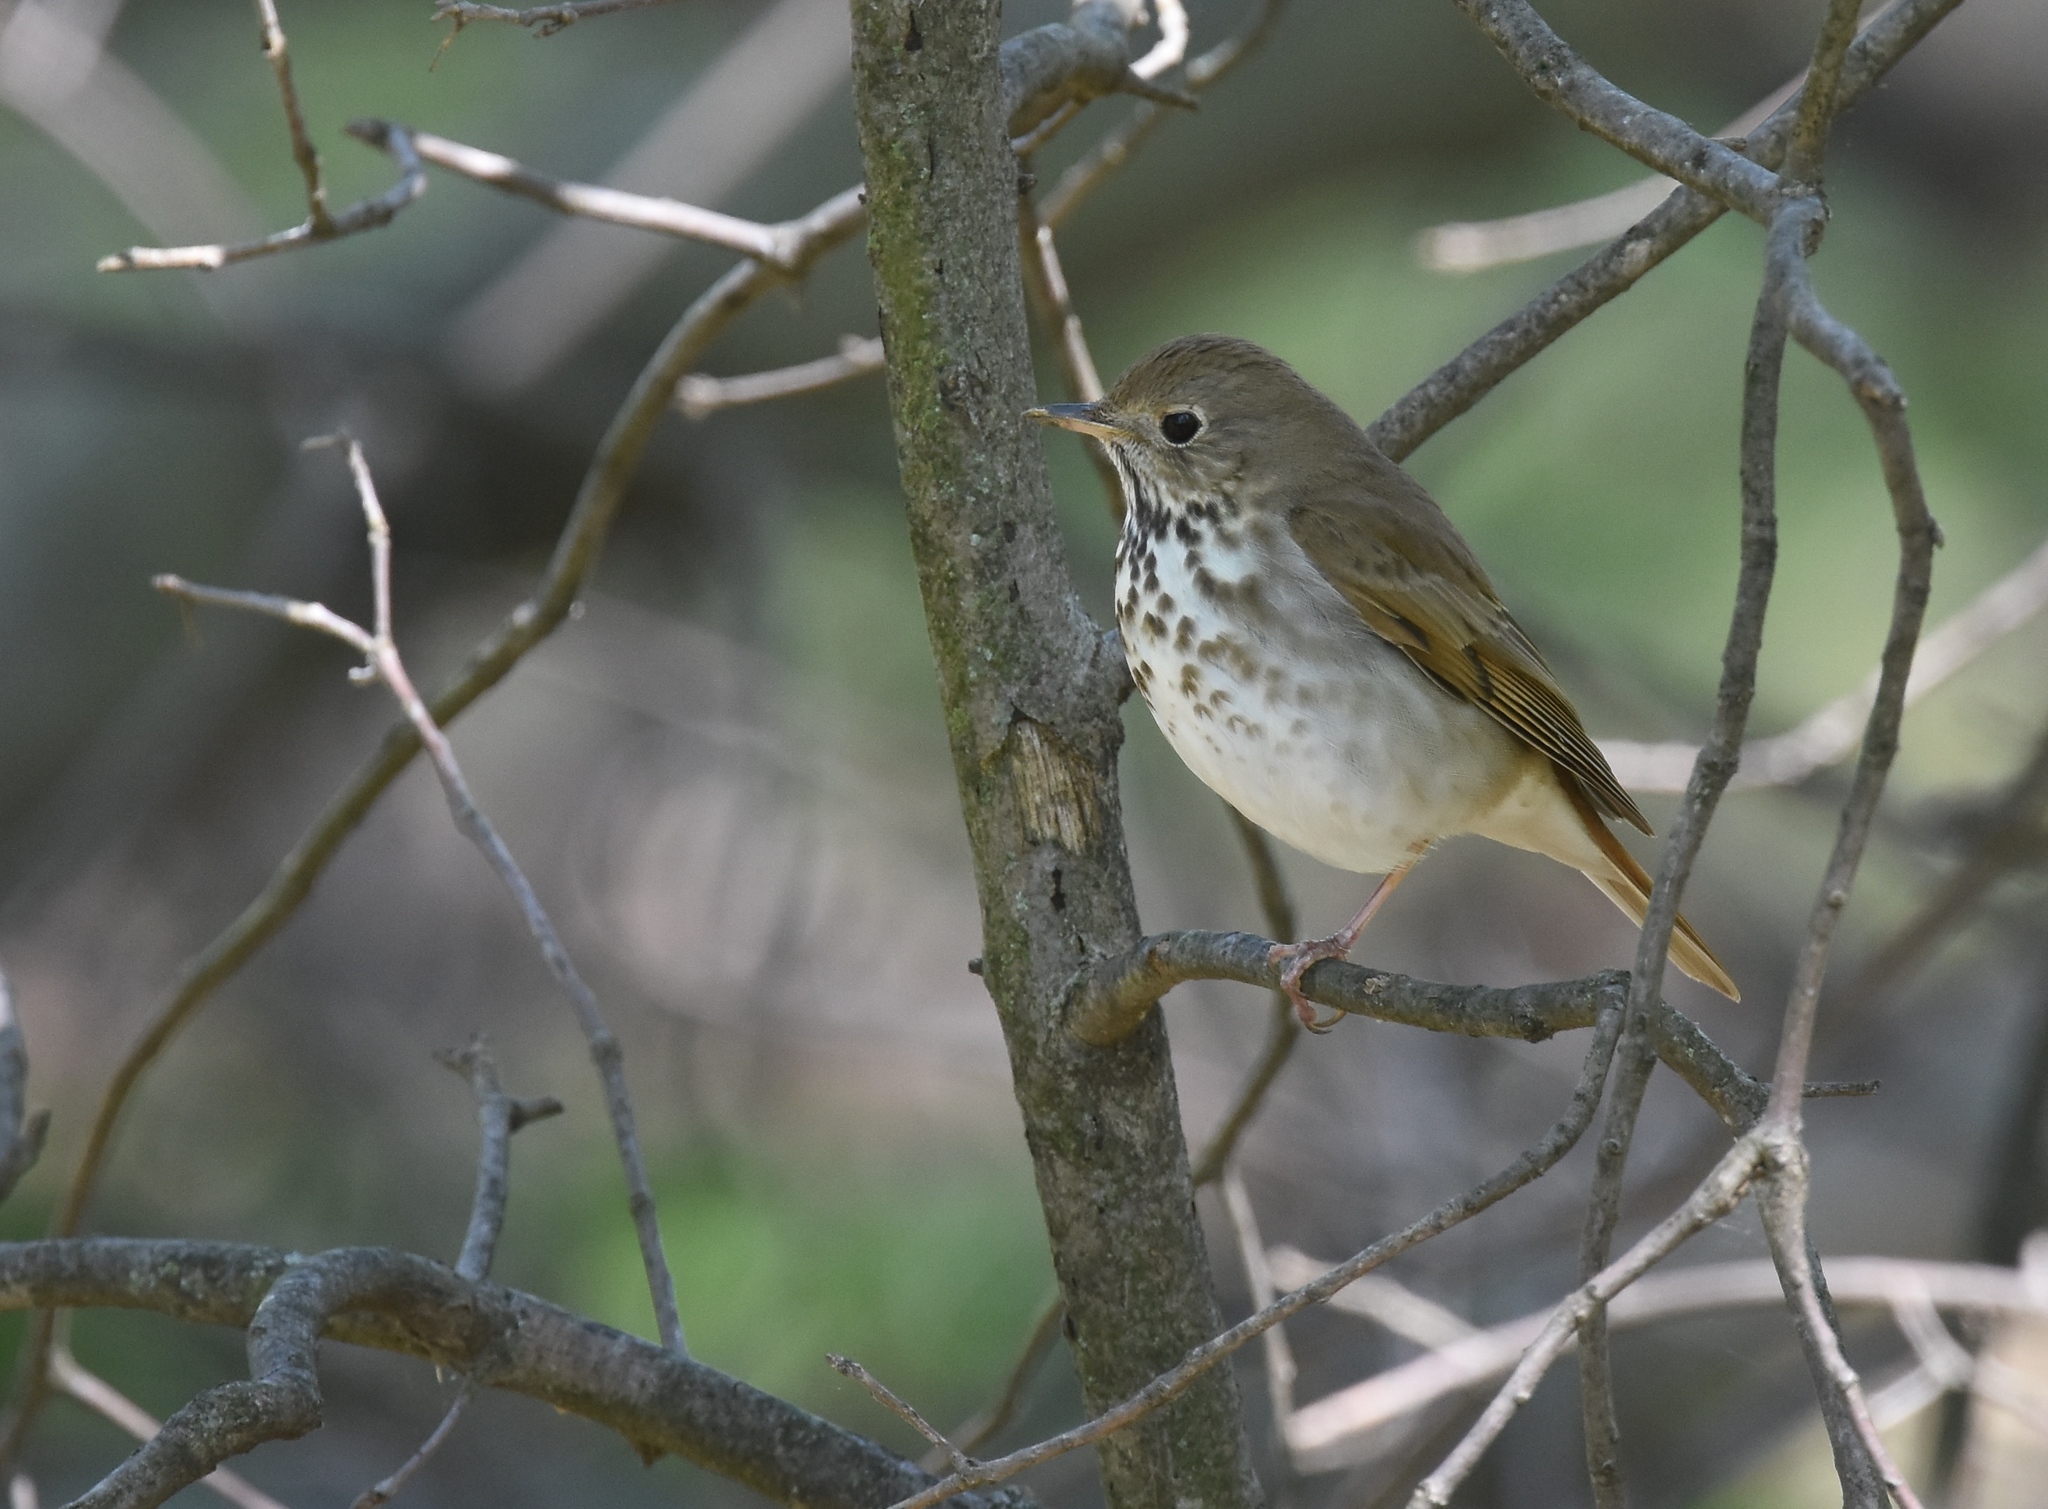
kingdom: Animalia
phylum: Chordata
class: Aves
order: Passeriformes
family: Turdidae
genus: Catharus
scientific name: Catharus guttatus
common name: Hermit thrush
